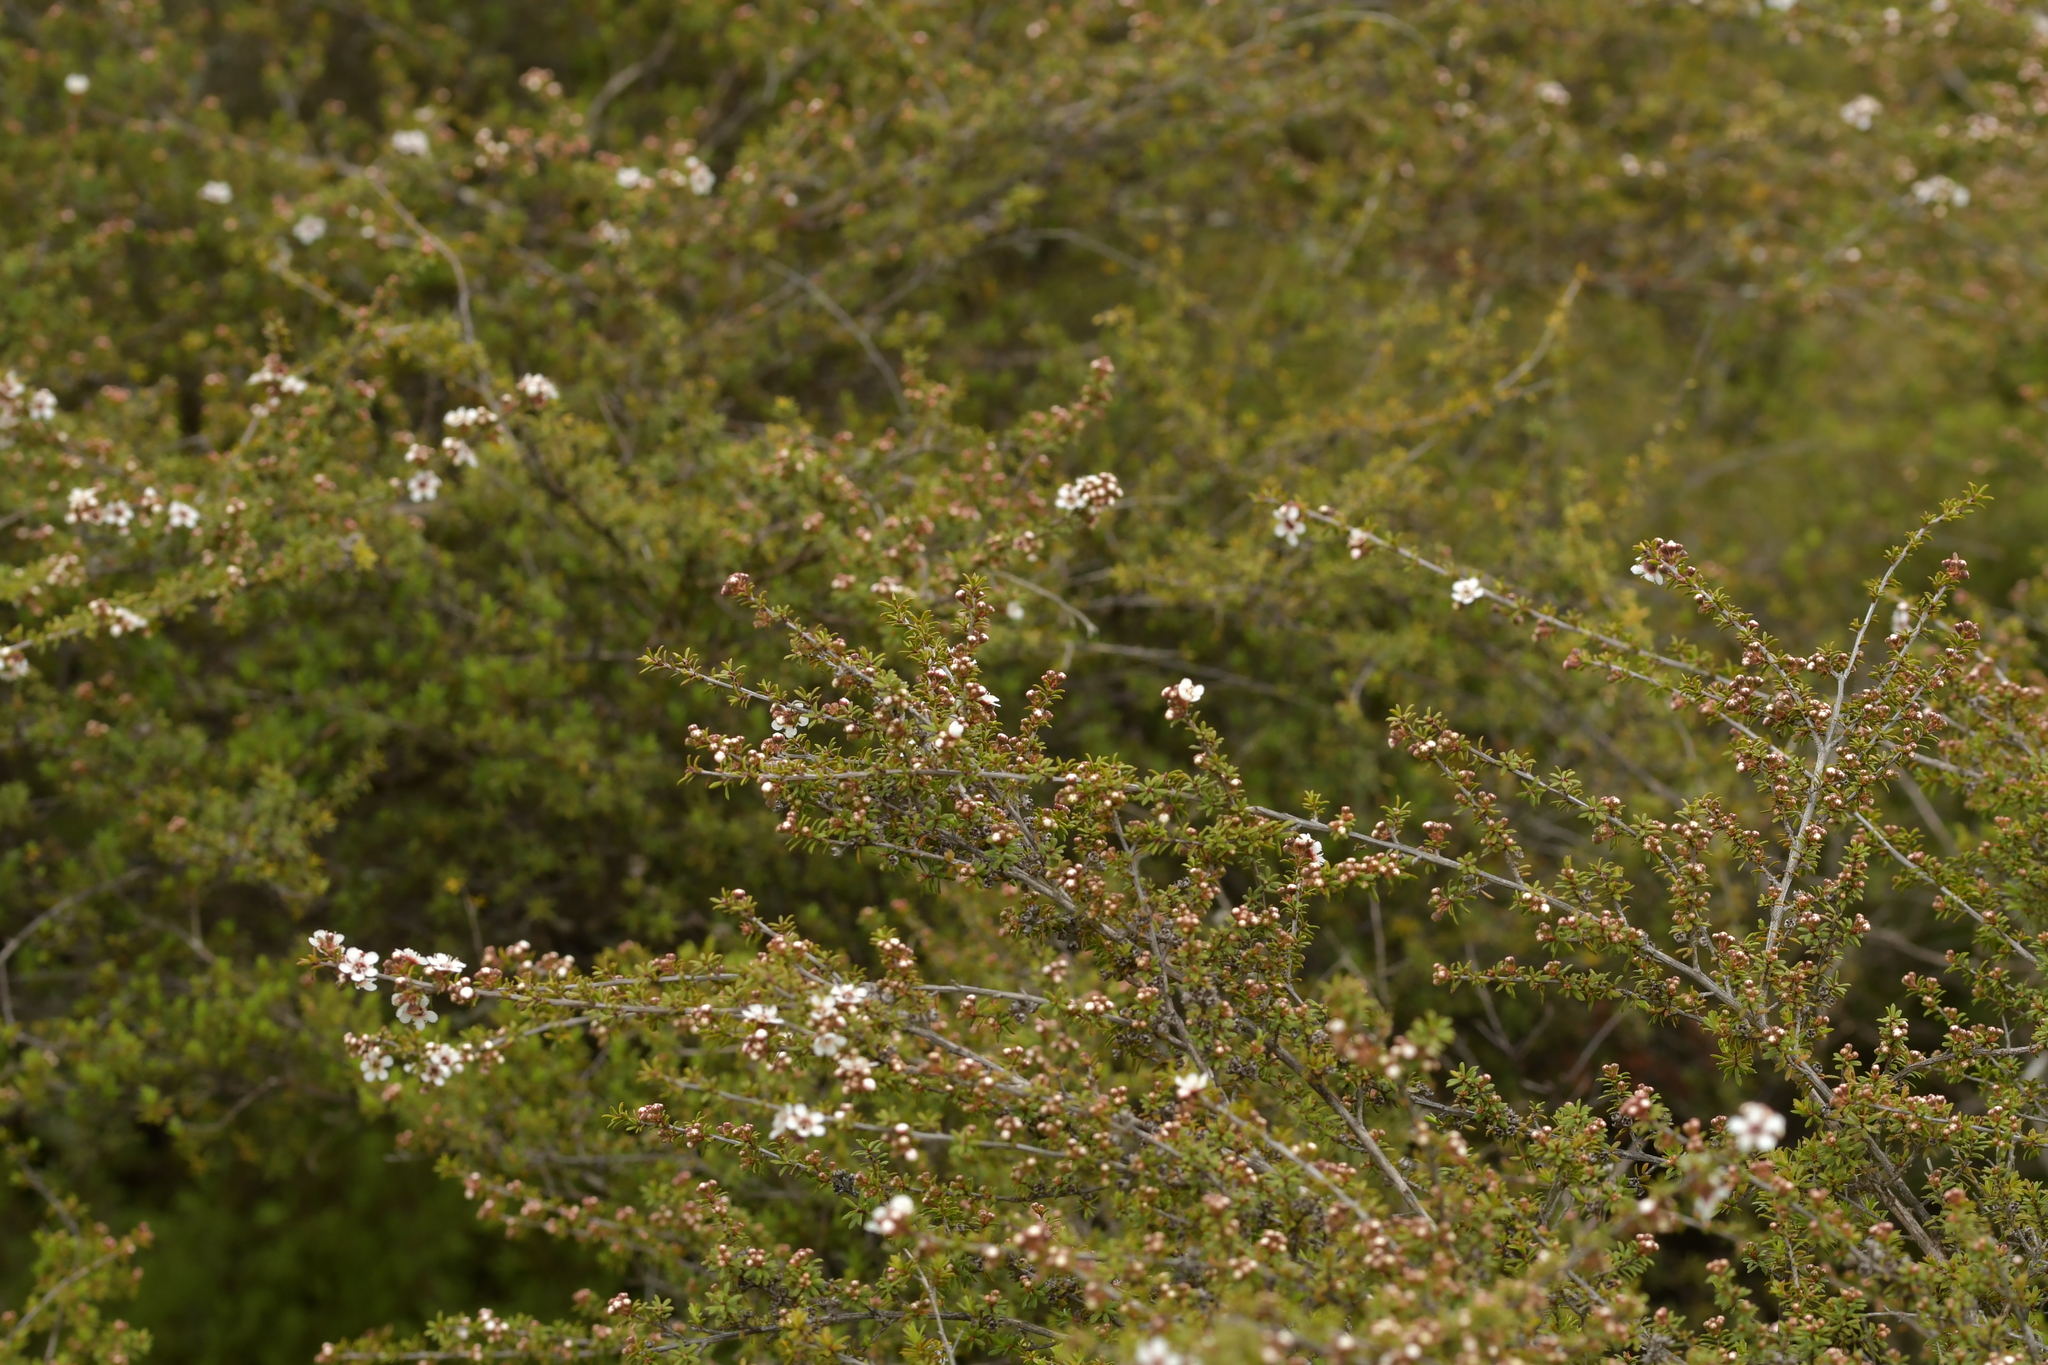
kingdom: Plantae
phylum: Tracheophyta
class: Magnoliopsida
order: Myrtales
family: Myrtaceae
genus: Kunzea
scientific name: Kunzea tenuicaulis
